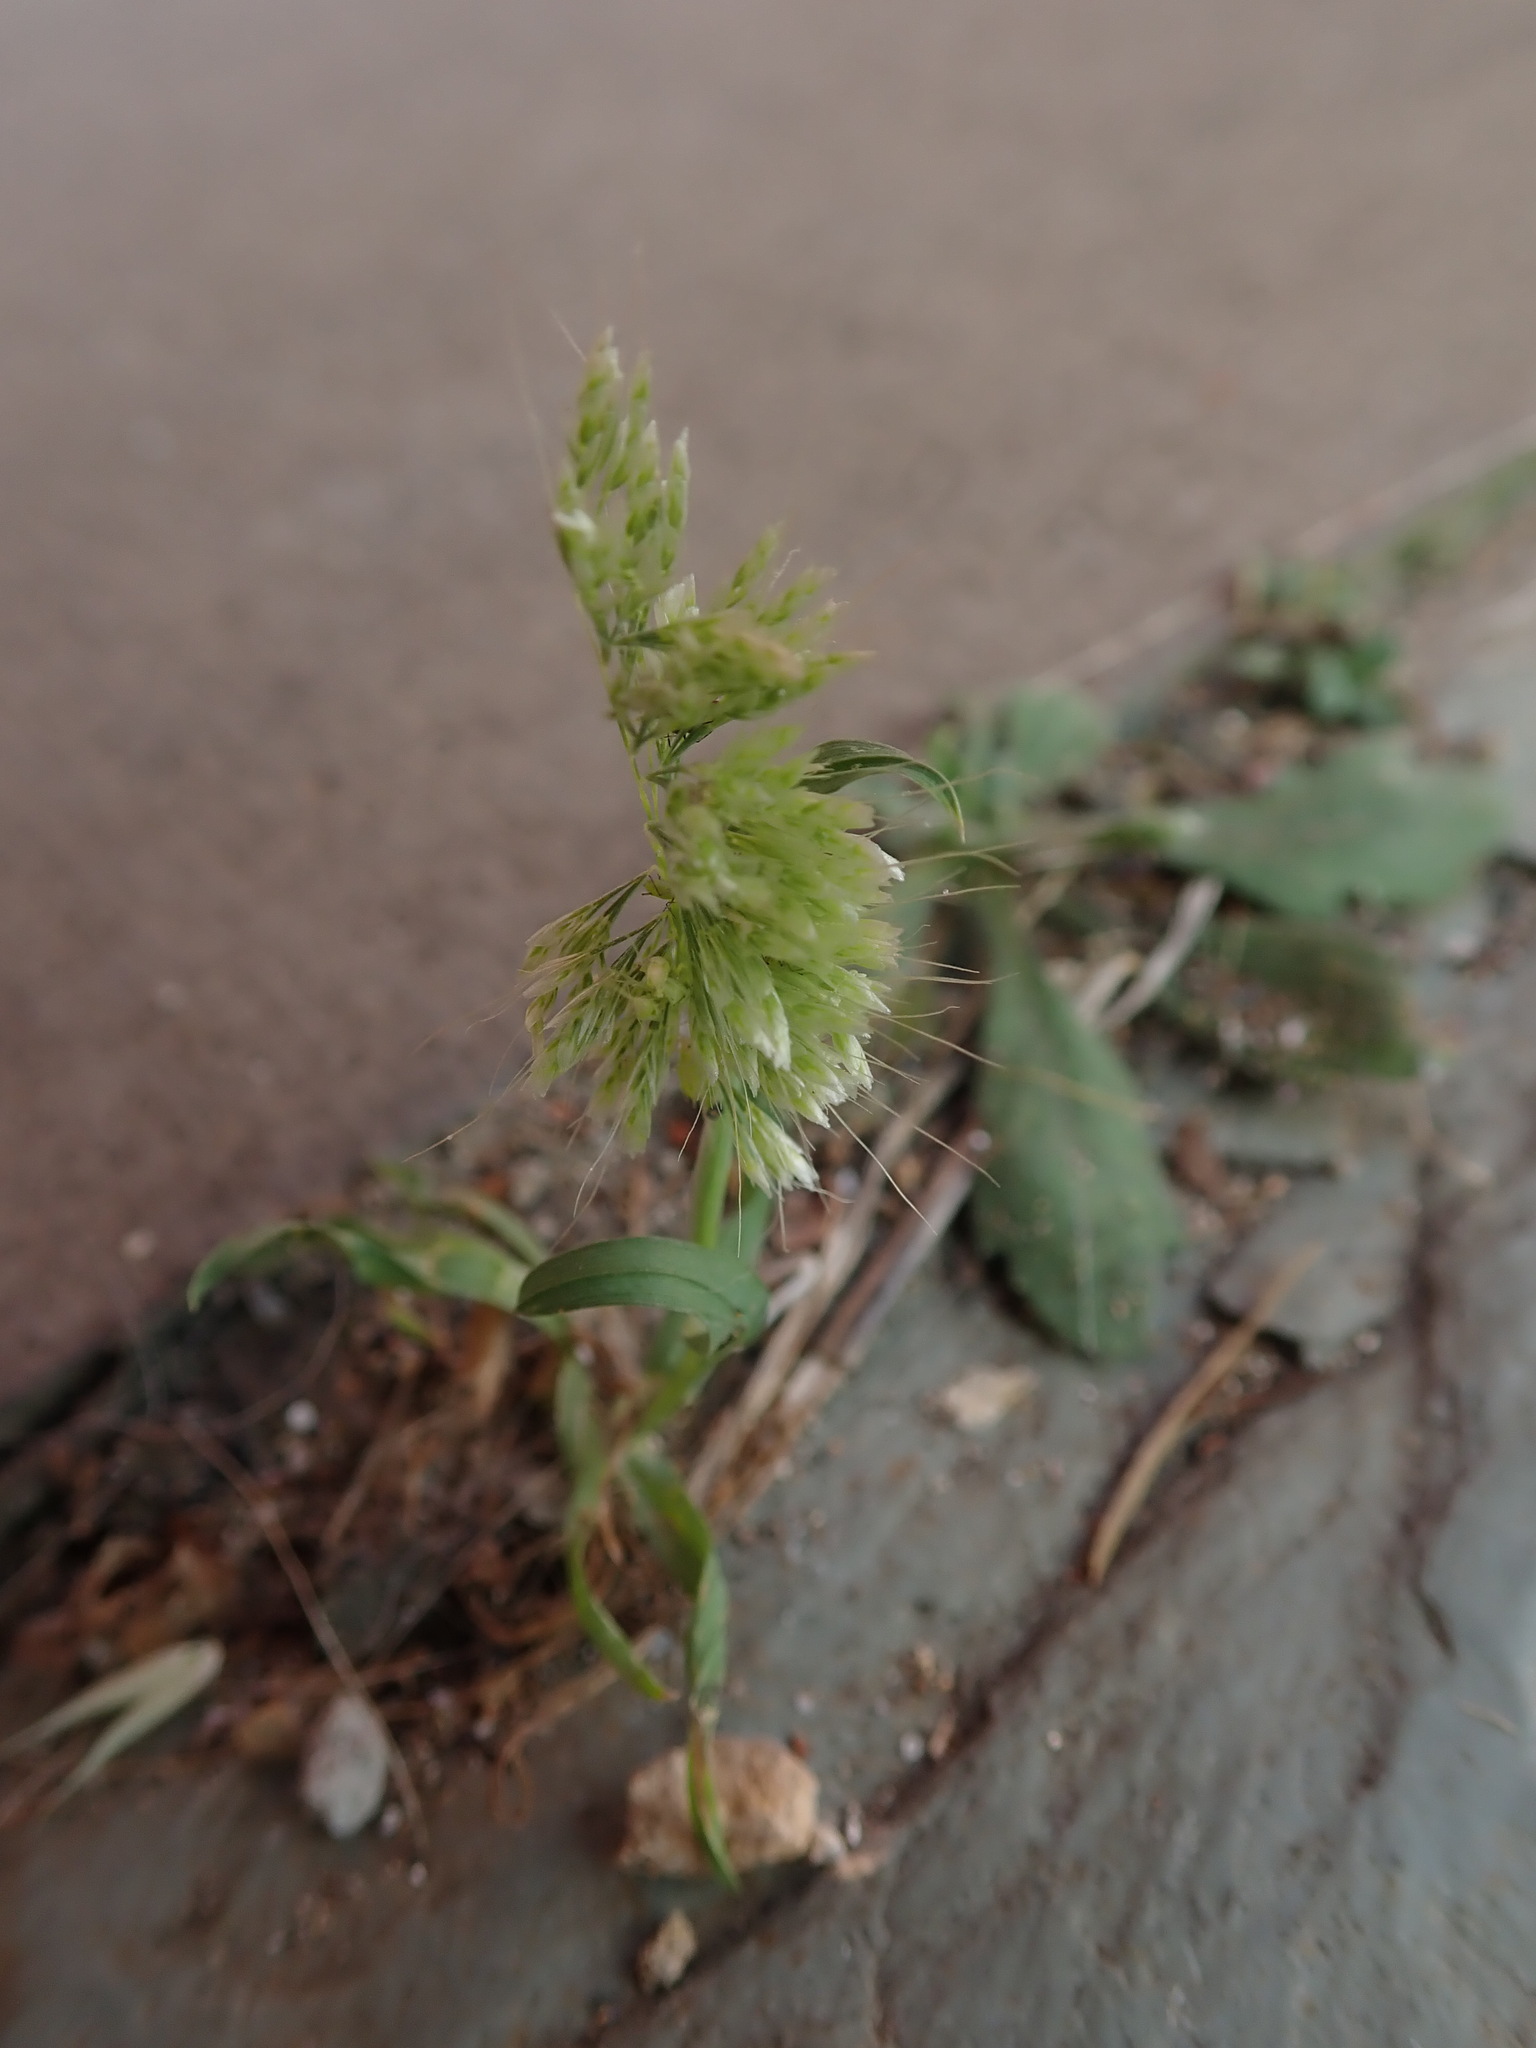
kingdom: Plantae
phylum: Tracheophyta
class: Liliopsida
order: Poales
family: Poaceae
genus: Lamarckia
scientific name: Lamarckia aurea
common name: Golden dog's-tail
